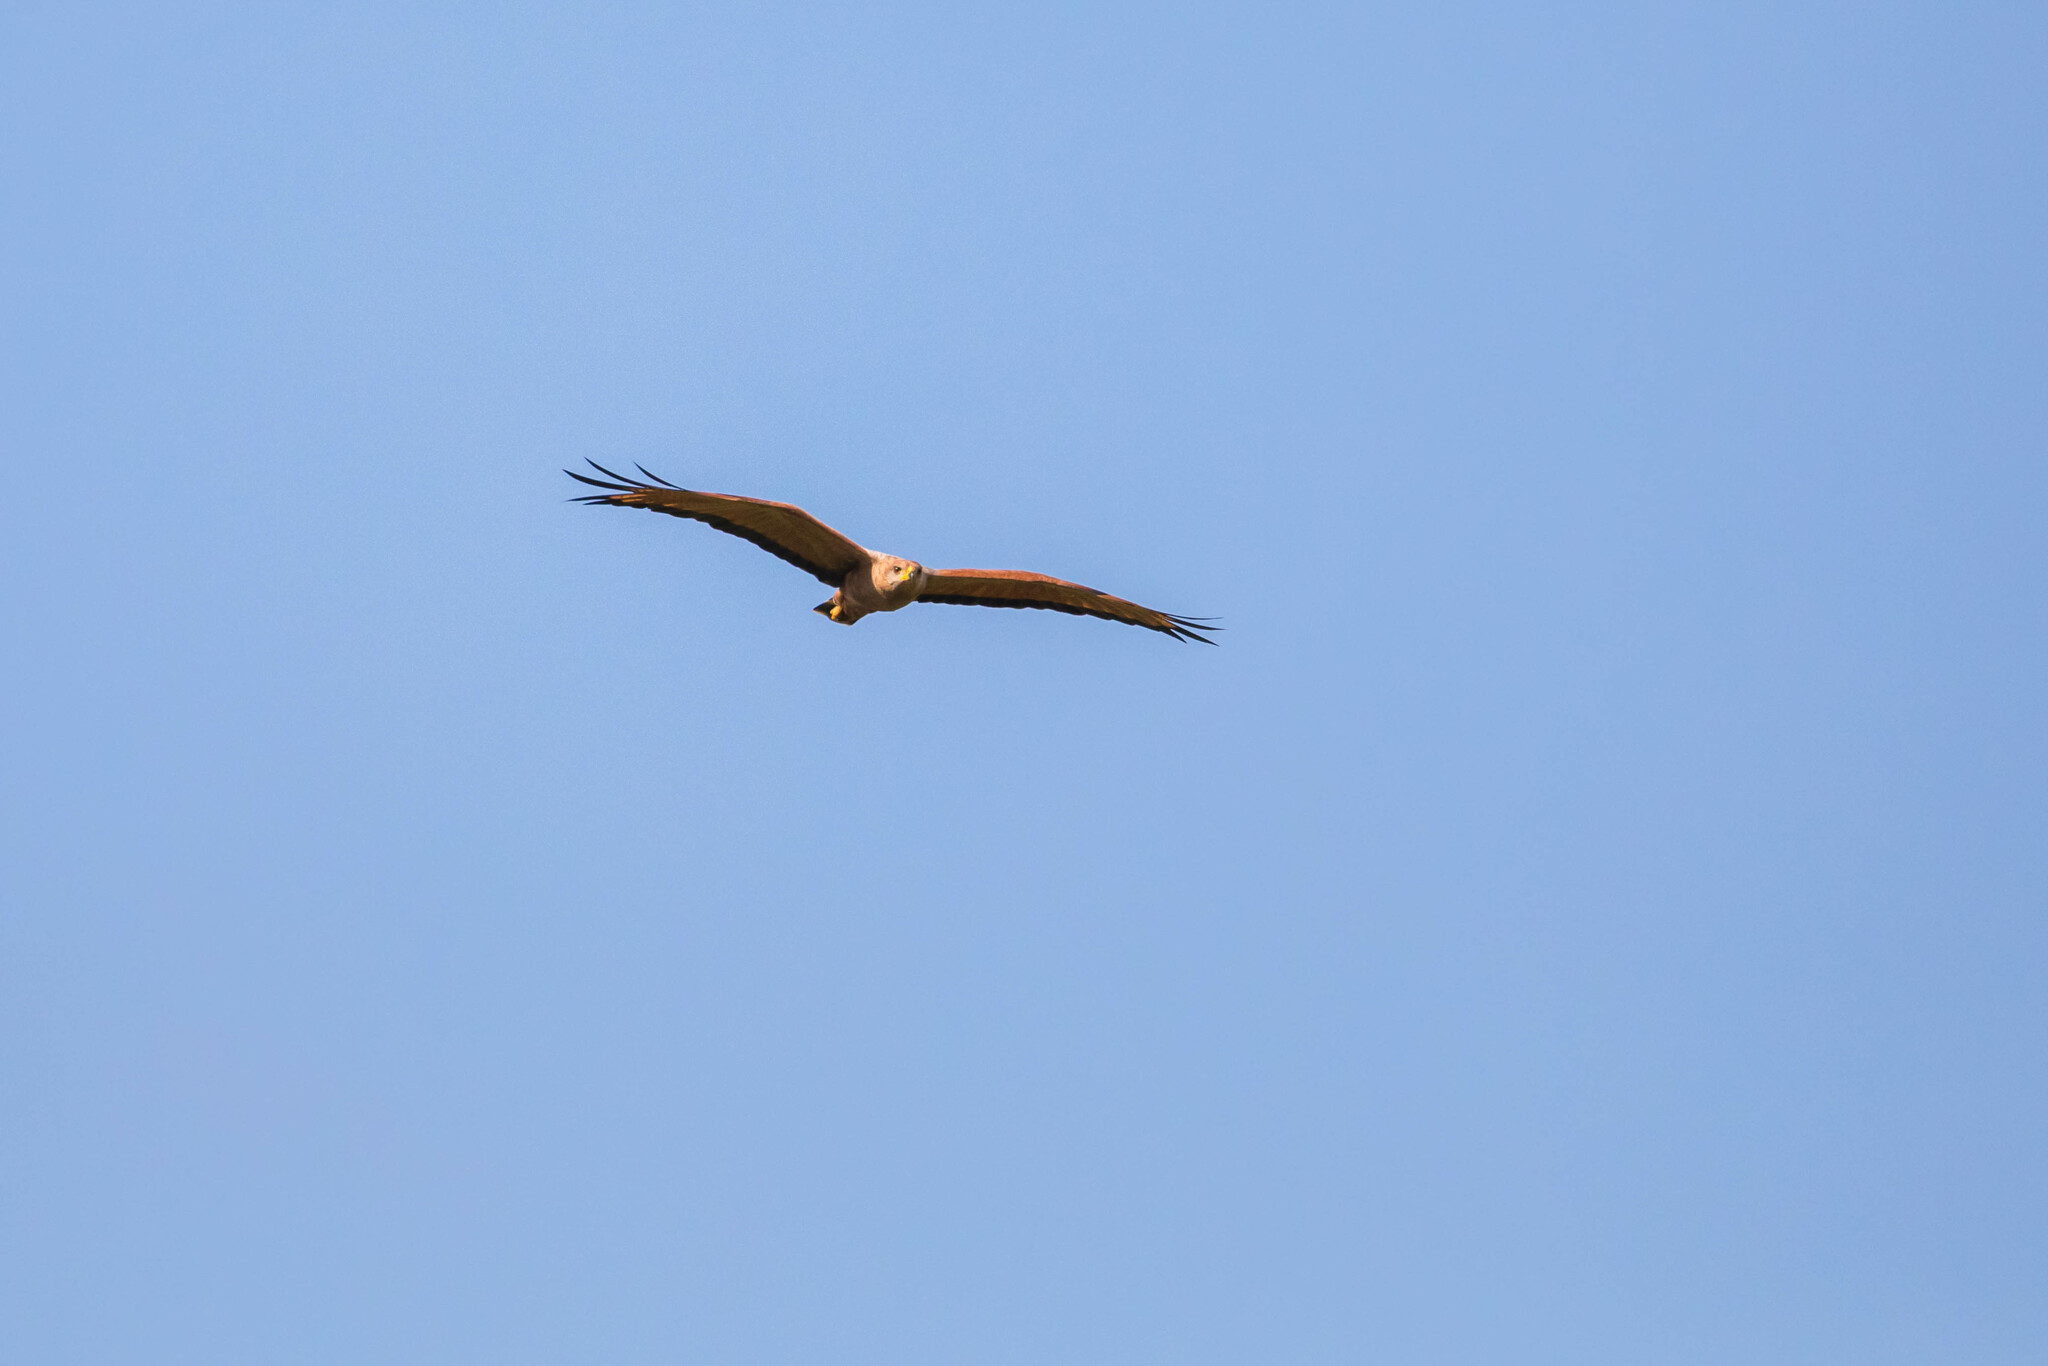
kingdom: Animalia
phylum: Chordata
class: Aves
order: Accipitriformes
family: Accipitridae
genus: Buteogallus
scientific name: Buteogallus meridionalis
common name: Savanna hawk
